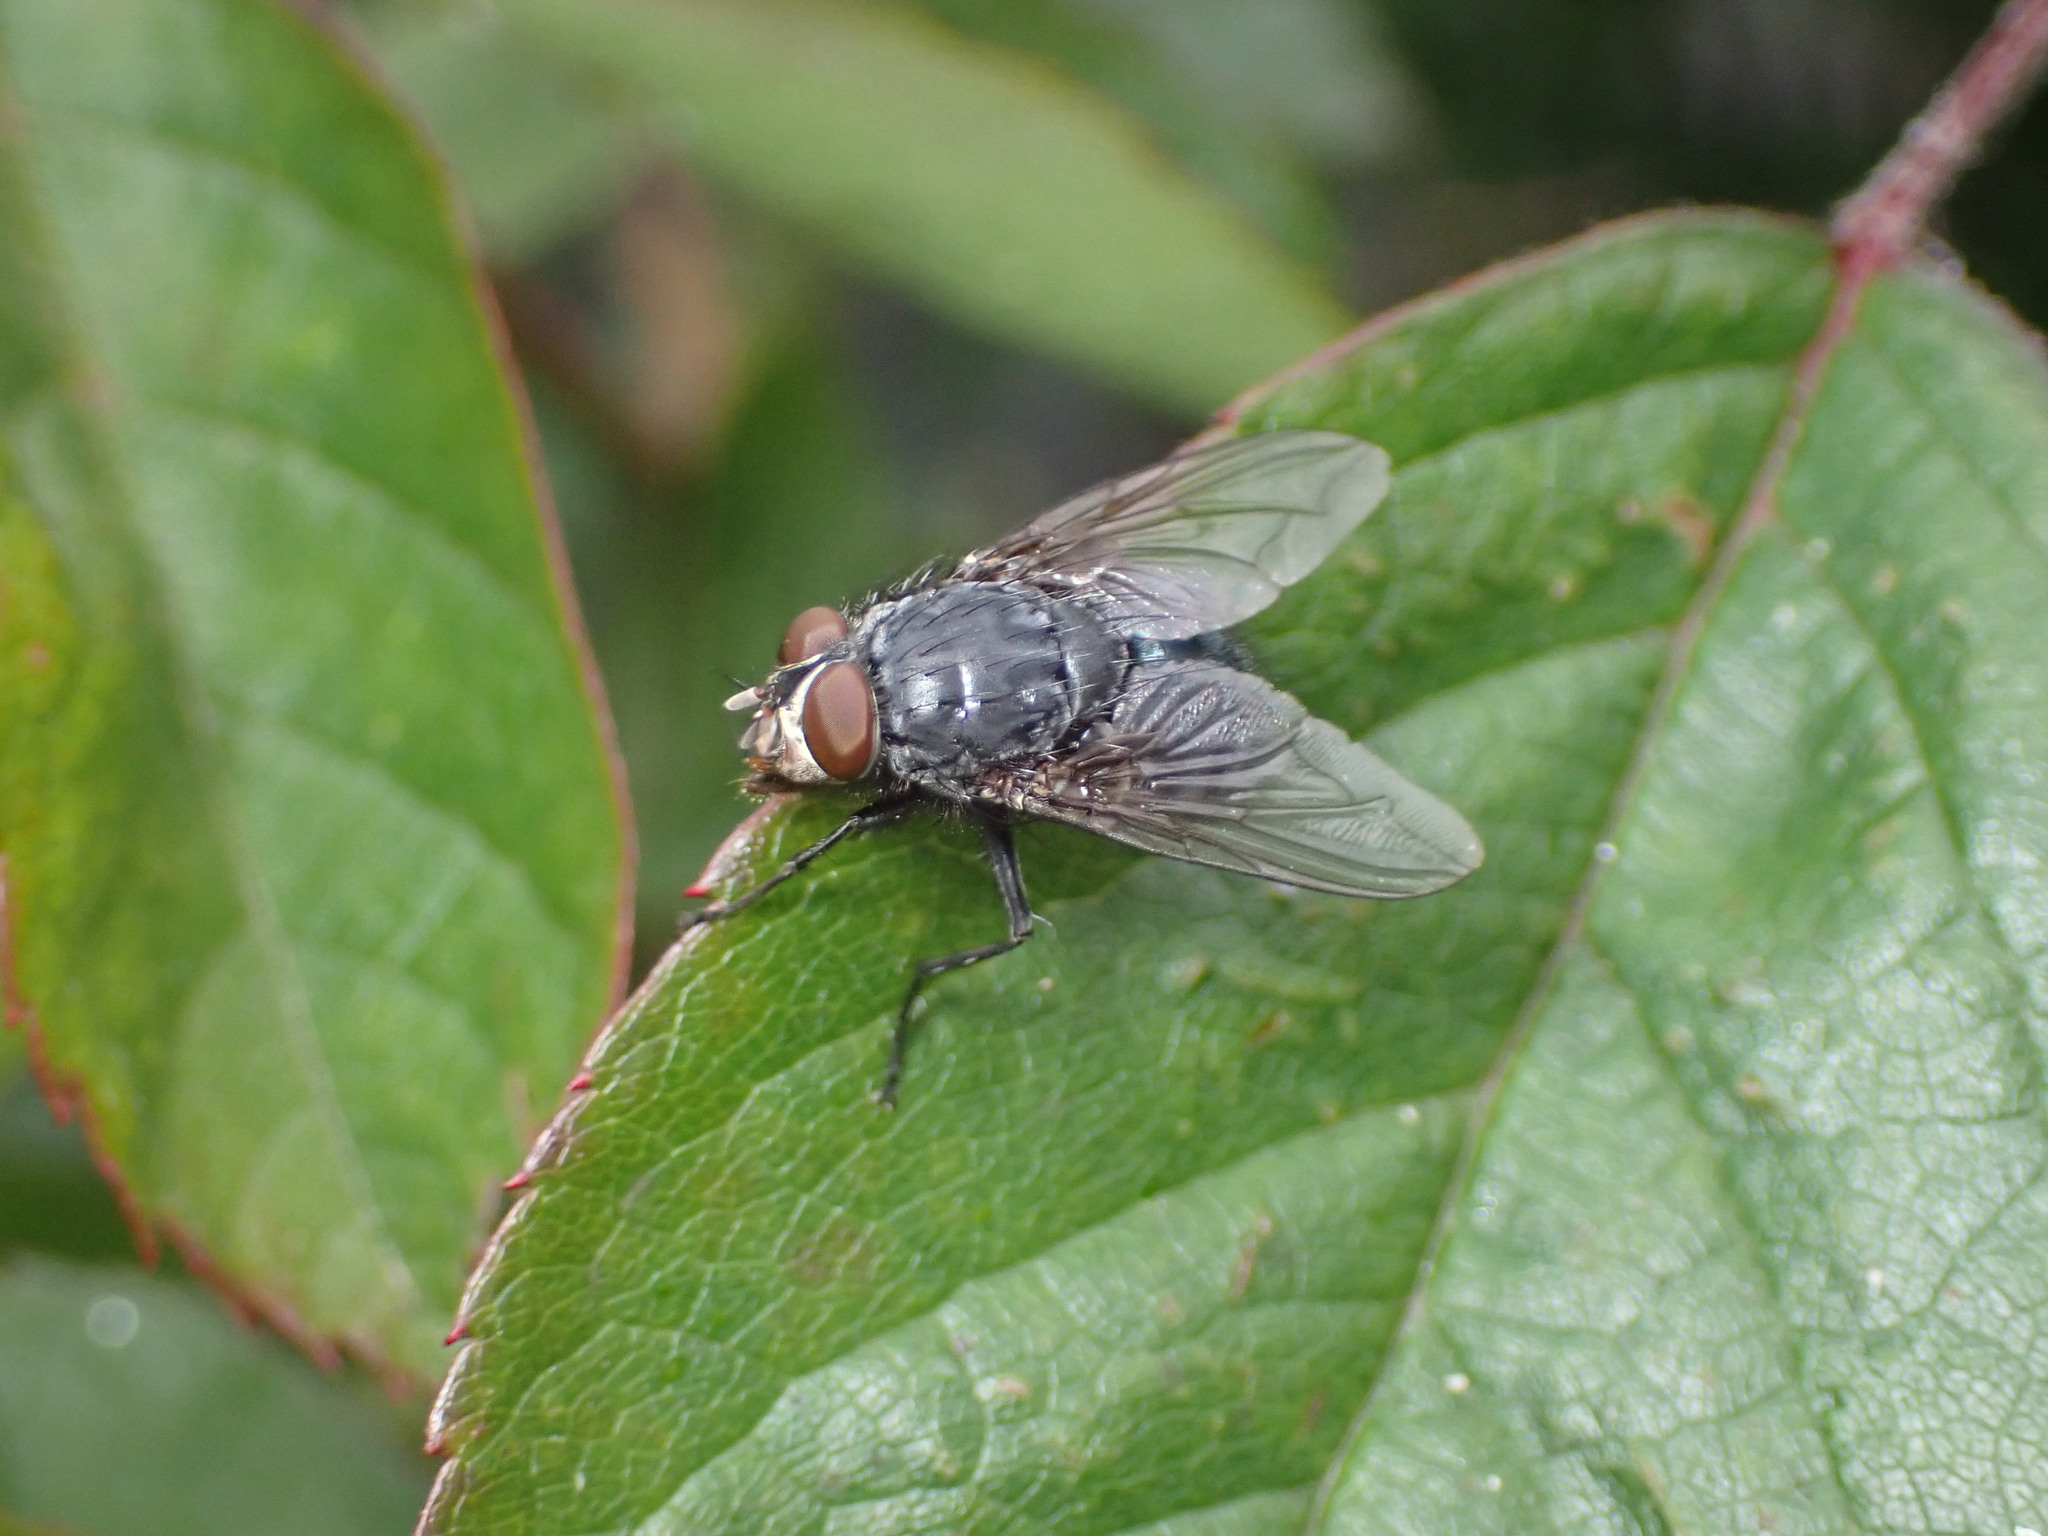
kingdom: Animalia
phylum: Arthropoda
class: Insecta
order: Diptera
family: Calliphoridae
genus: Calliphora
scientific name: Calliphora vicina
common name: Common blow flie
